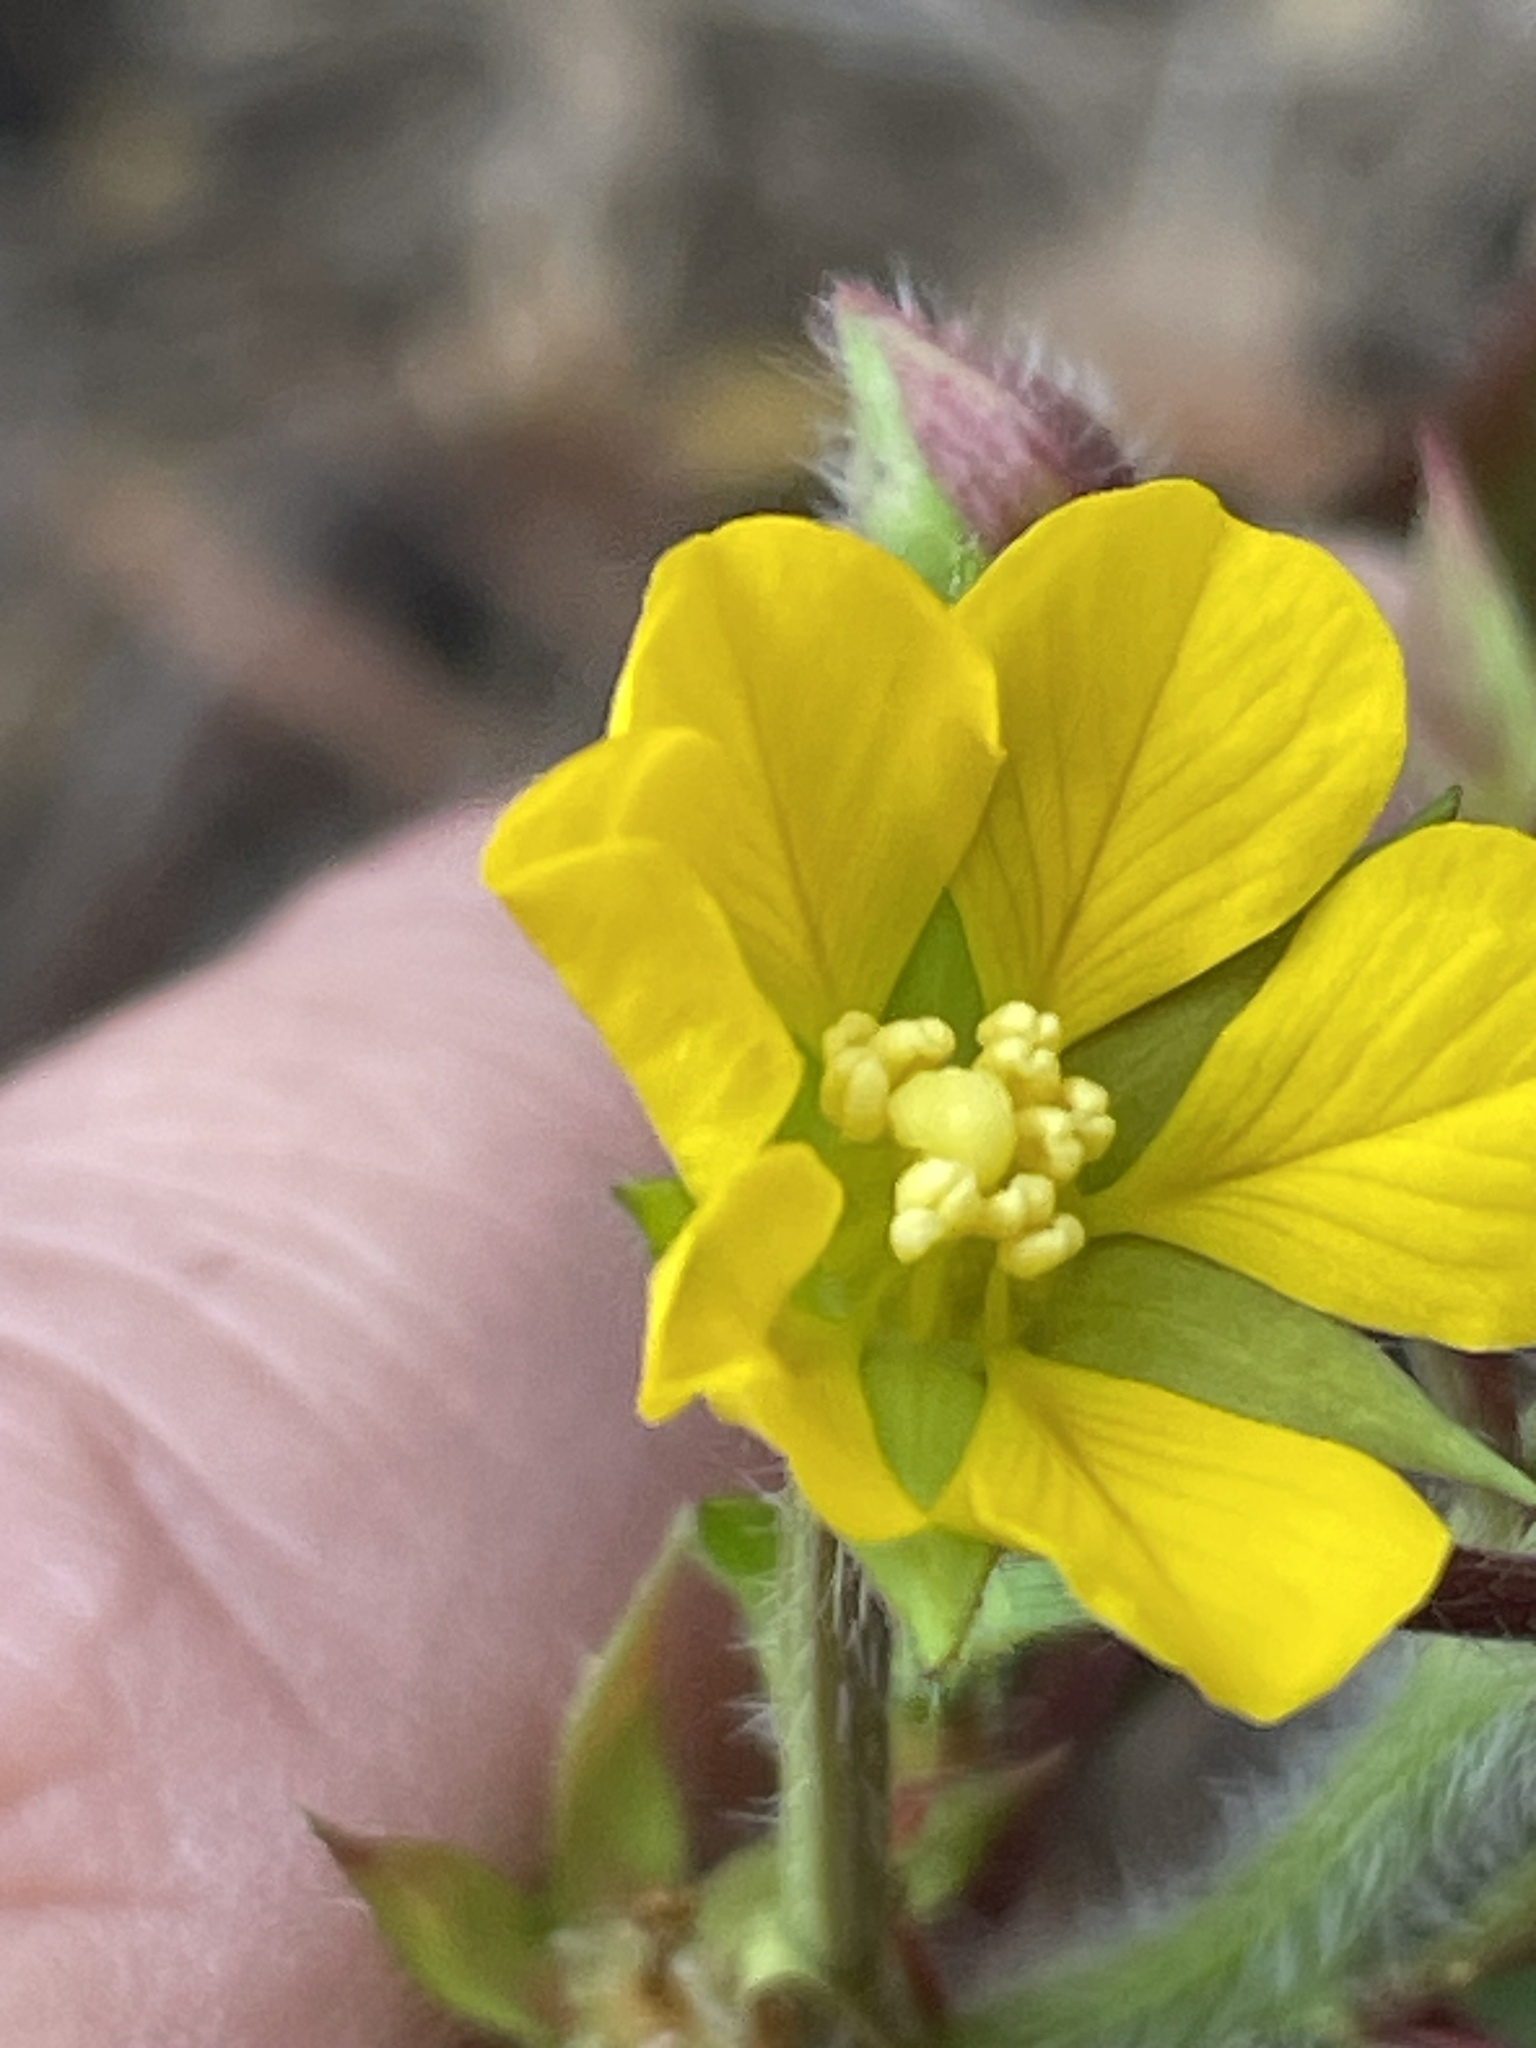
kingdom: Plantae
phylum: Tracheophyta
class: Magnoliopsida
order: Myrtales
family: Onagraceae
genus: Ludwigia
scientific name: Ludwigia leptocarpa
